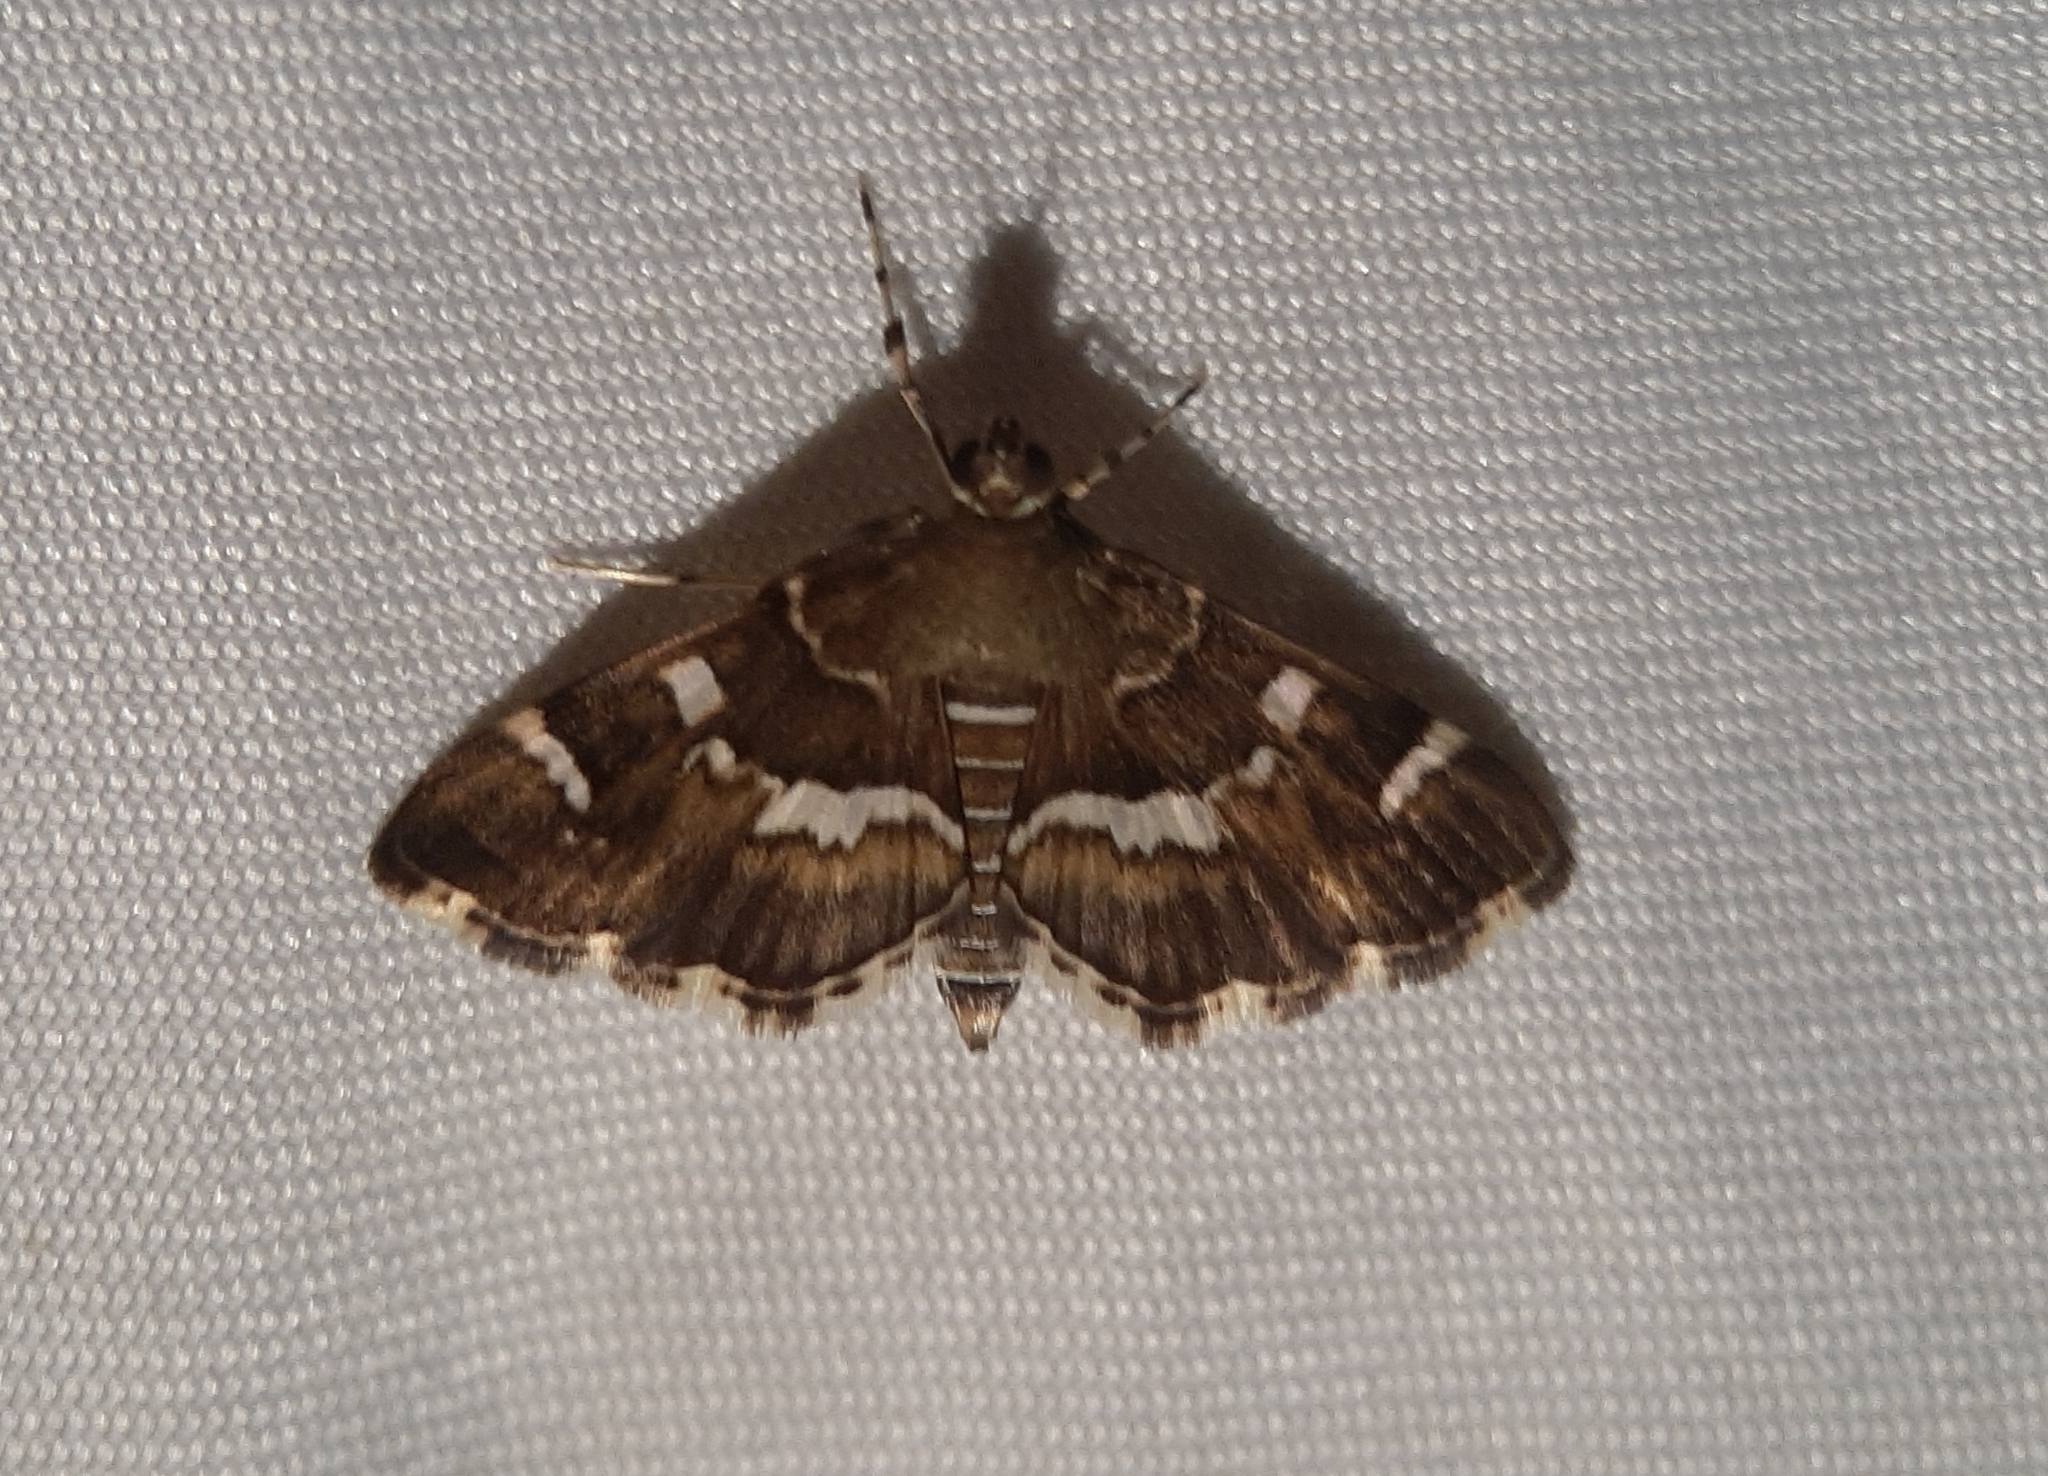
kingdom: Animalia
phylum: Arthropoda
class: Insecta
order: Lepidoptera
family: Crambidae
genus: Hymenia
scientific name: Hymenia perspectalis
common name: Spotted beet webworm
